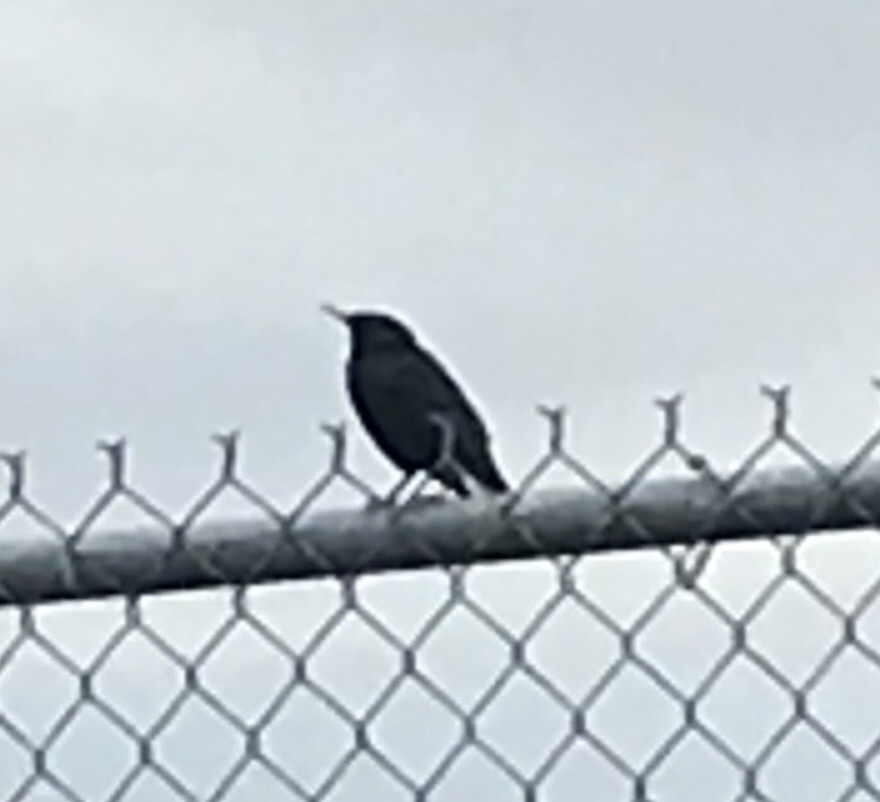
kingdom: Animalia
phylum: Chordata
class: Aves
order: Passeriformes
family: Sturnidae
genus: Sturnus
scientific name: Sturnus vulgaris
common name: Common starling
